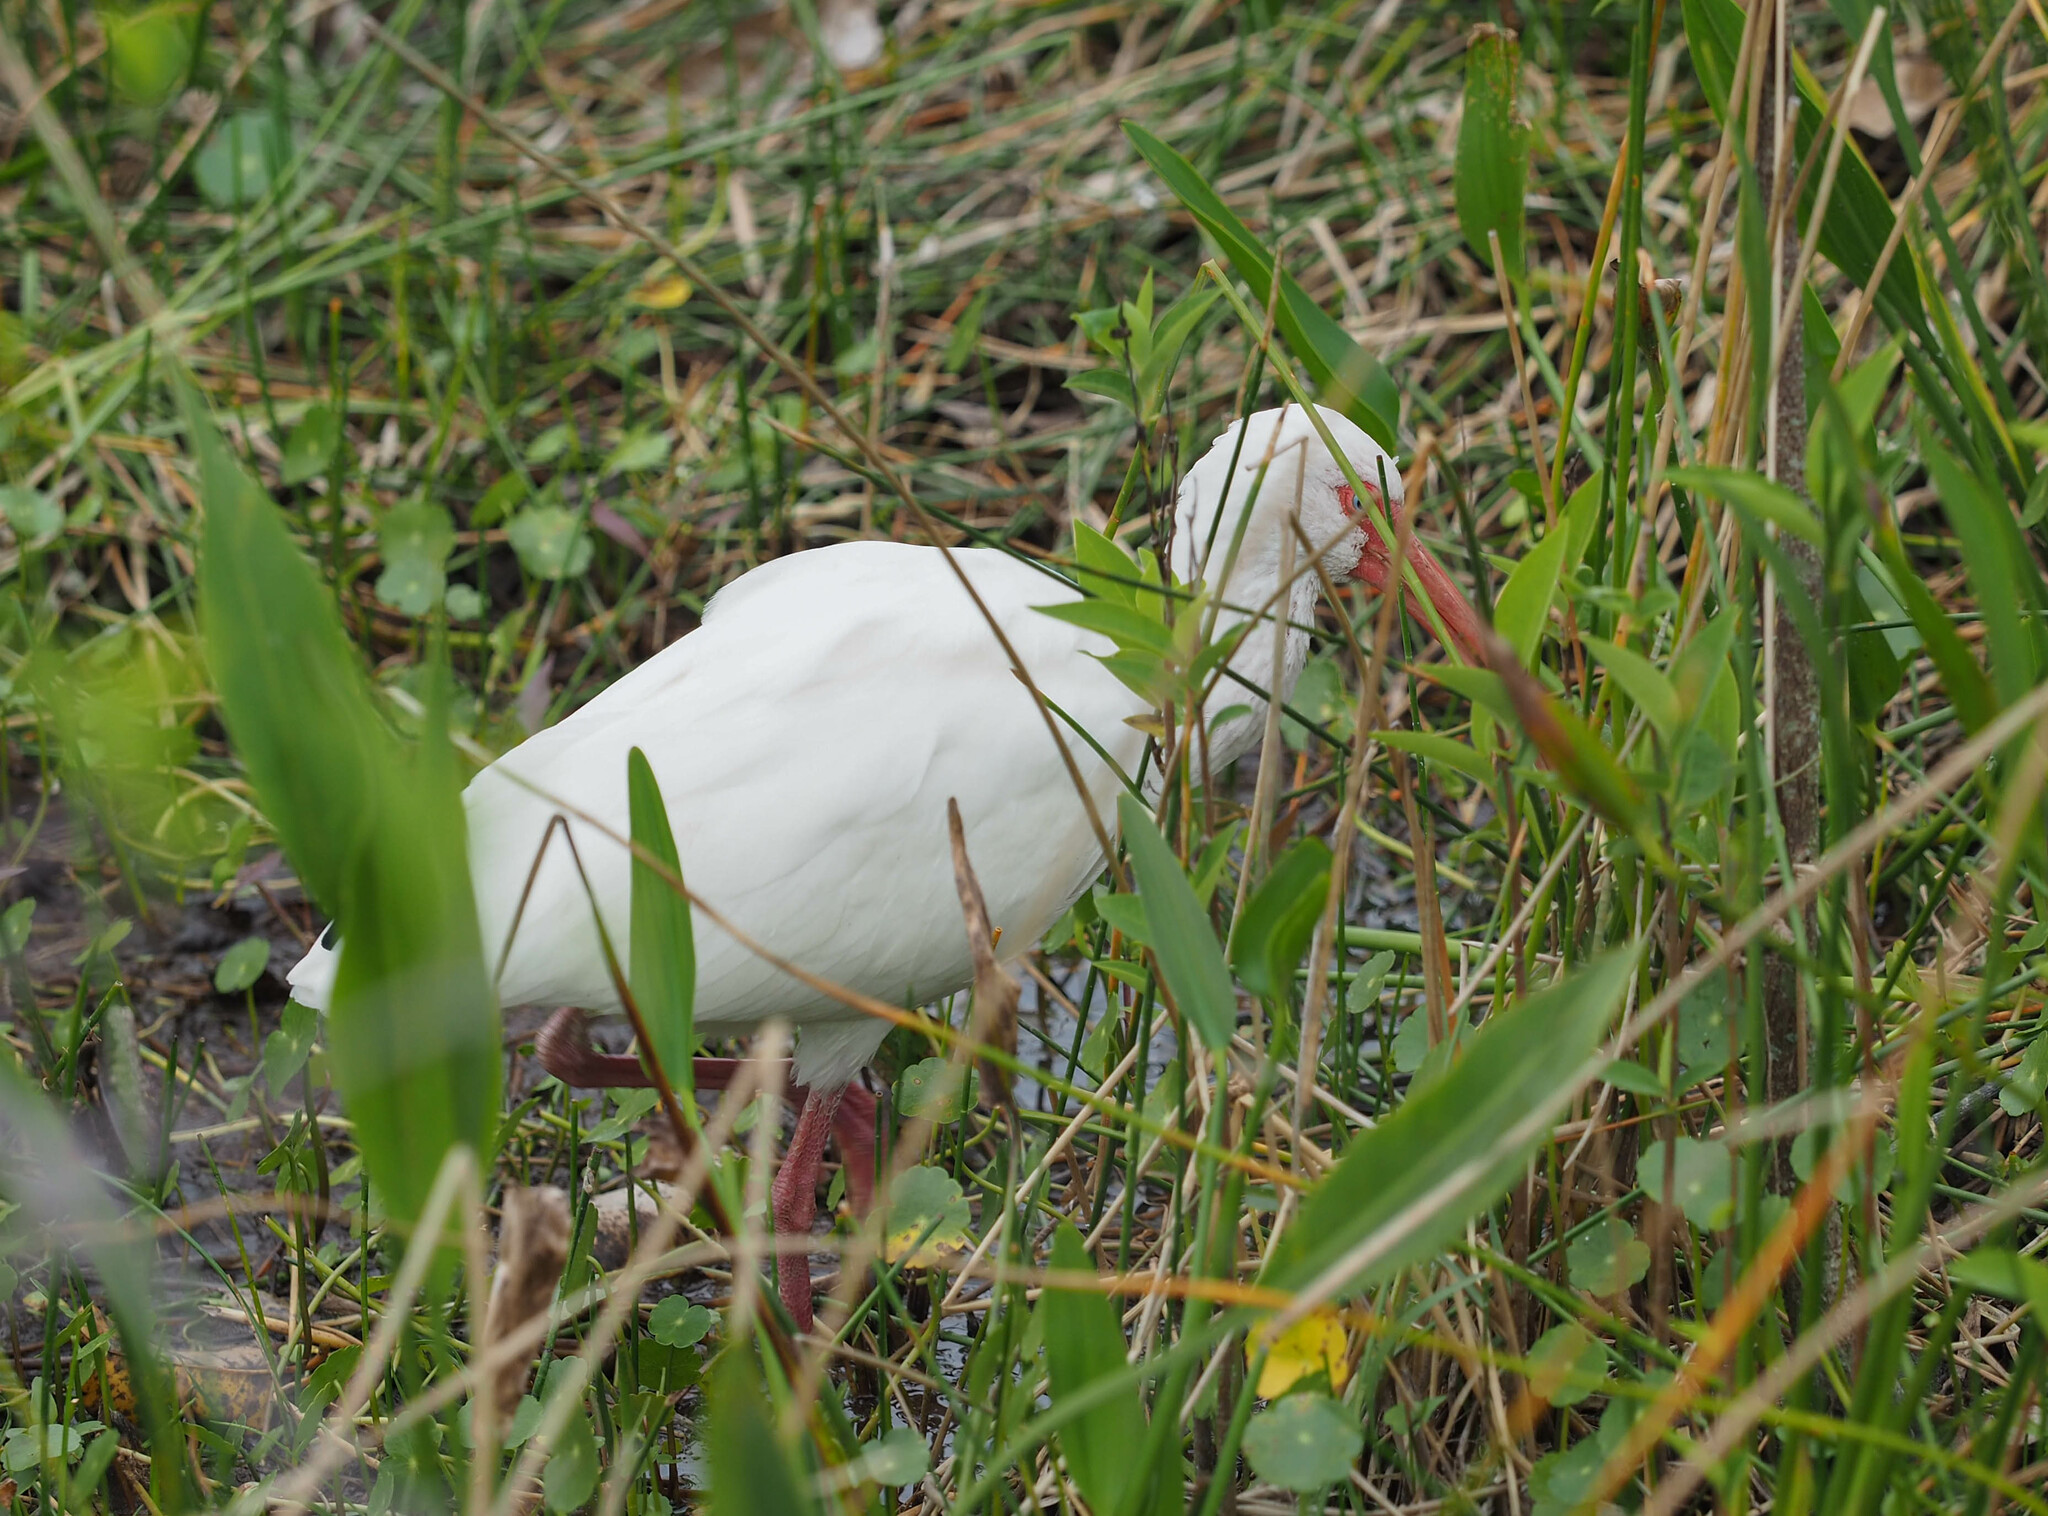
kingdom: Animalia
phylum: Chordata
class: Aves
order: Pelecaniformes
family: Threskiornithidae
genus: Eudocimus
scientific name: Eudocimus albus
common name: White ibis
